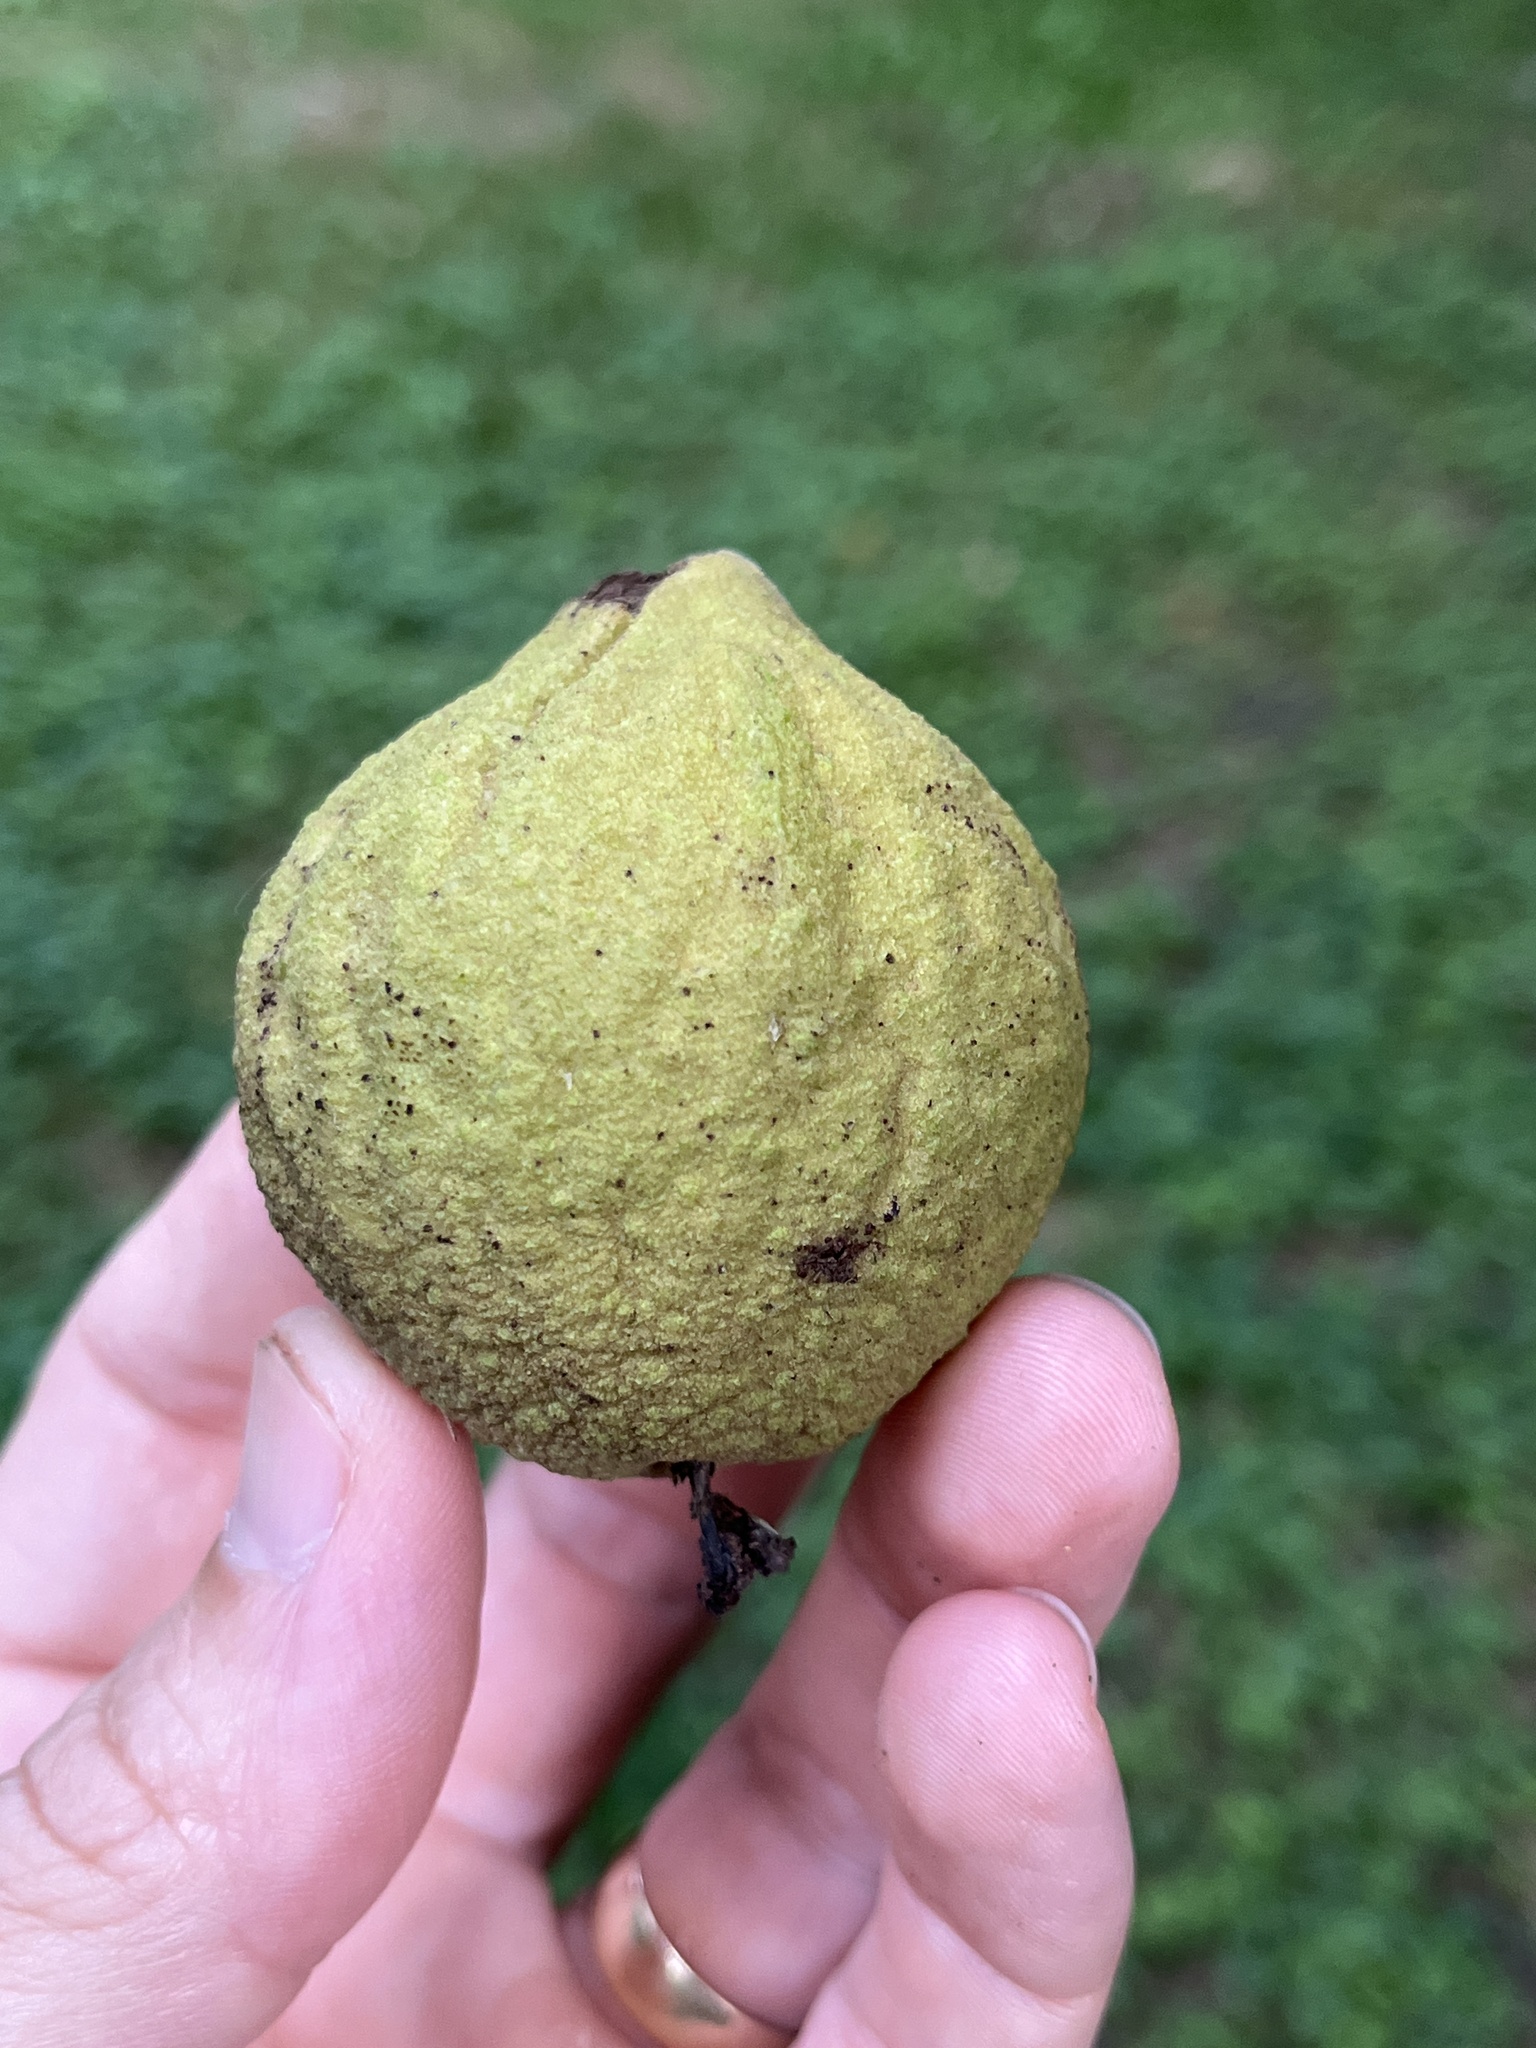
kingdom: Plantae
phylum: Tracheophyta
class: Magnoliopsida
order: Fagales
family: Juglandaceae
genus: Juglans
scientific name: Juglans nigra
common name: Black walnut
